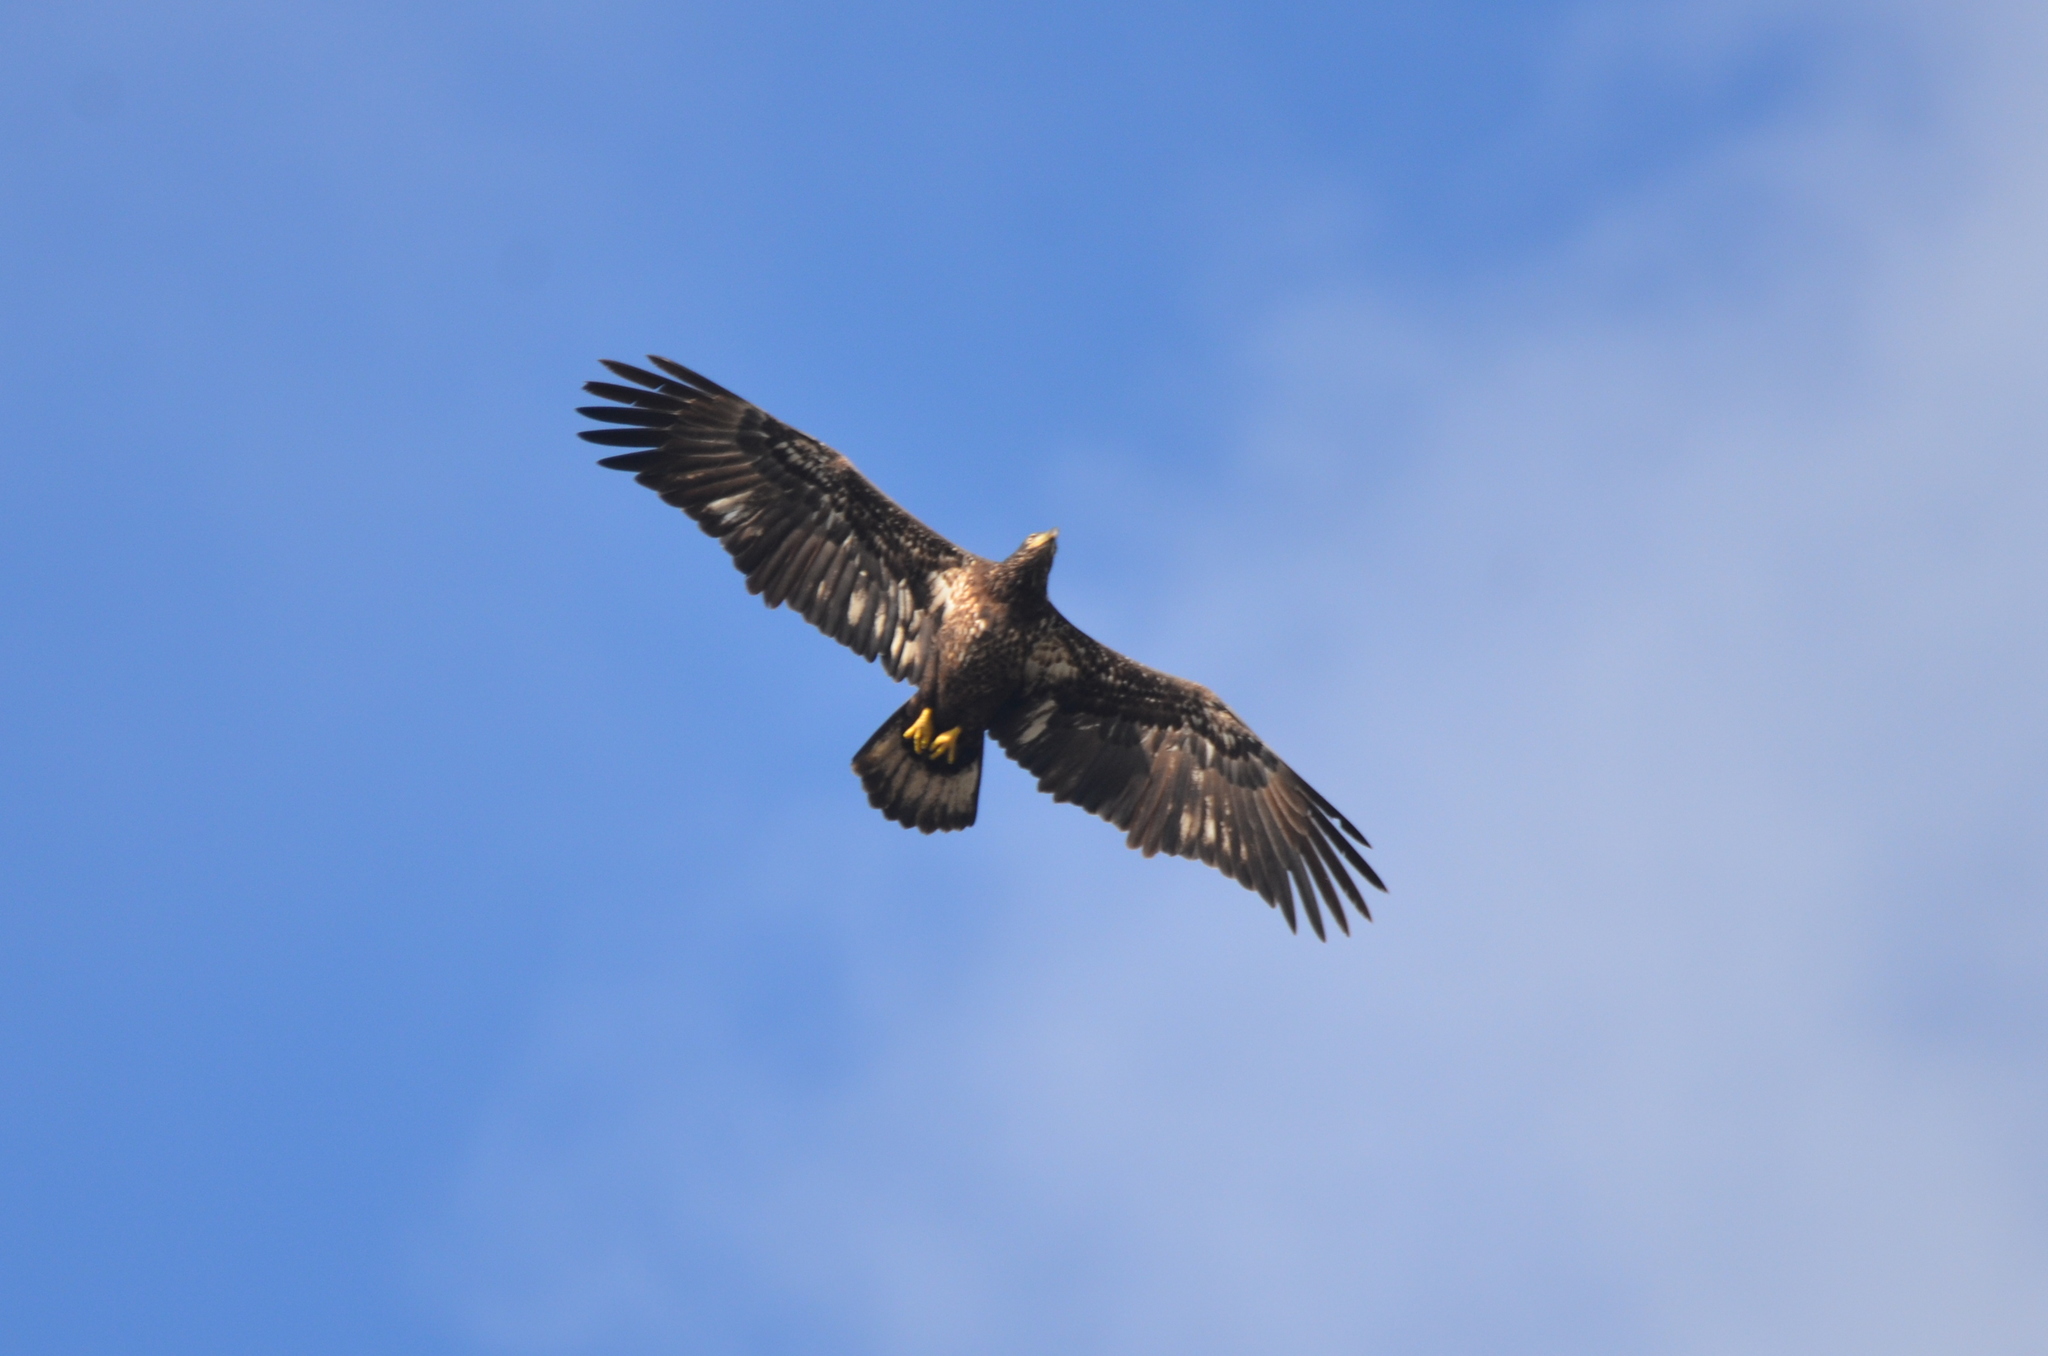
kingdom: Animalia
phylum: Chordata
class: Aves
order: Accipitriformes
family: Accipitridae
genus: Haliaeetus
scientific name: Haliaeetus leucocephalus
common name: Bald eagle
